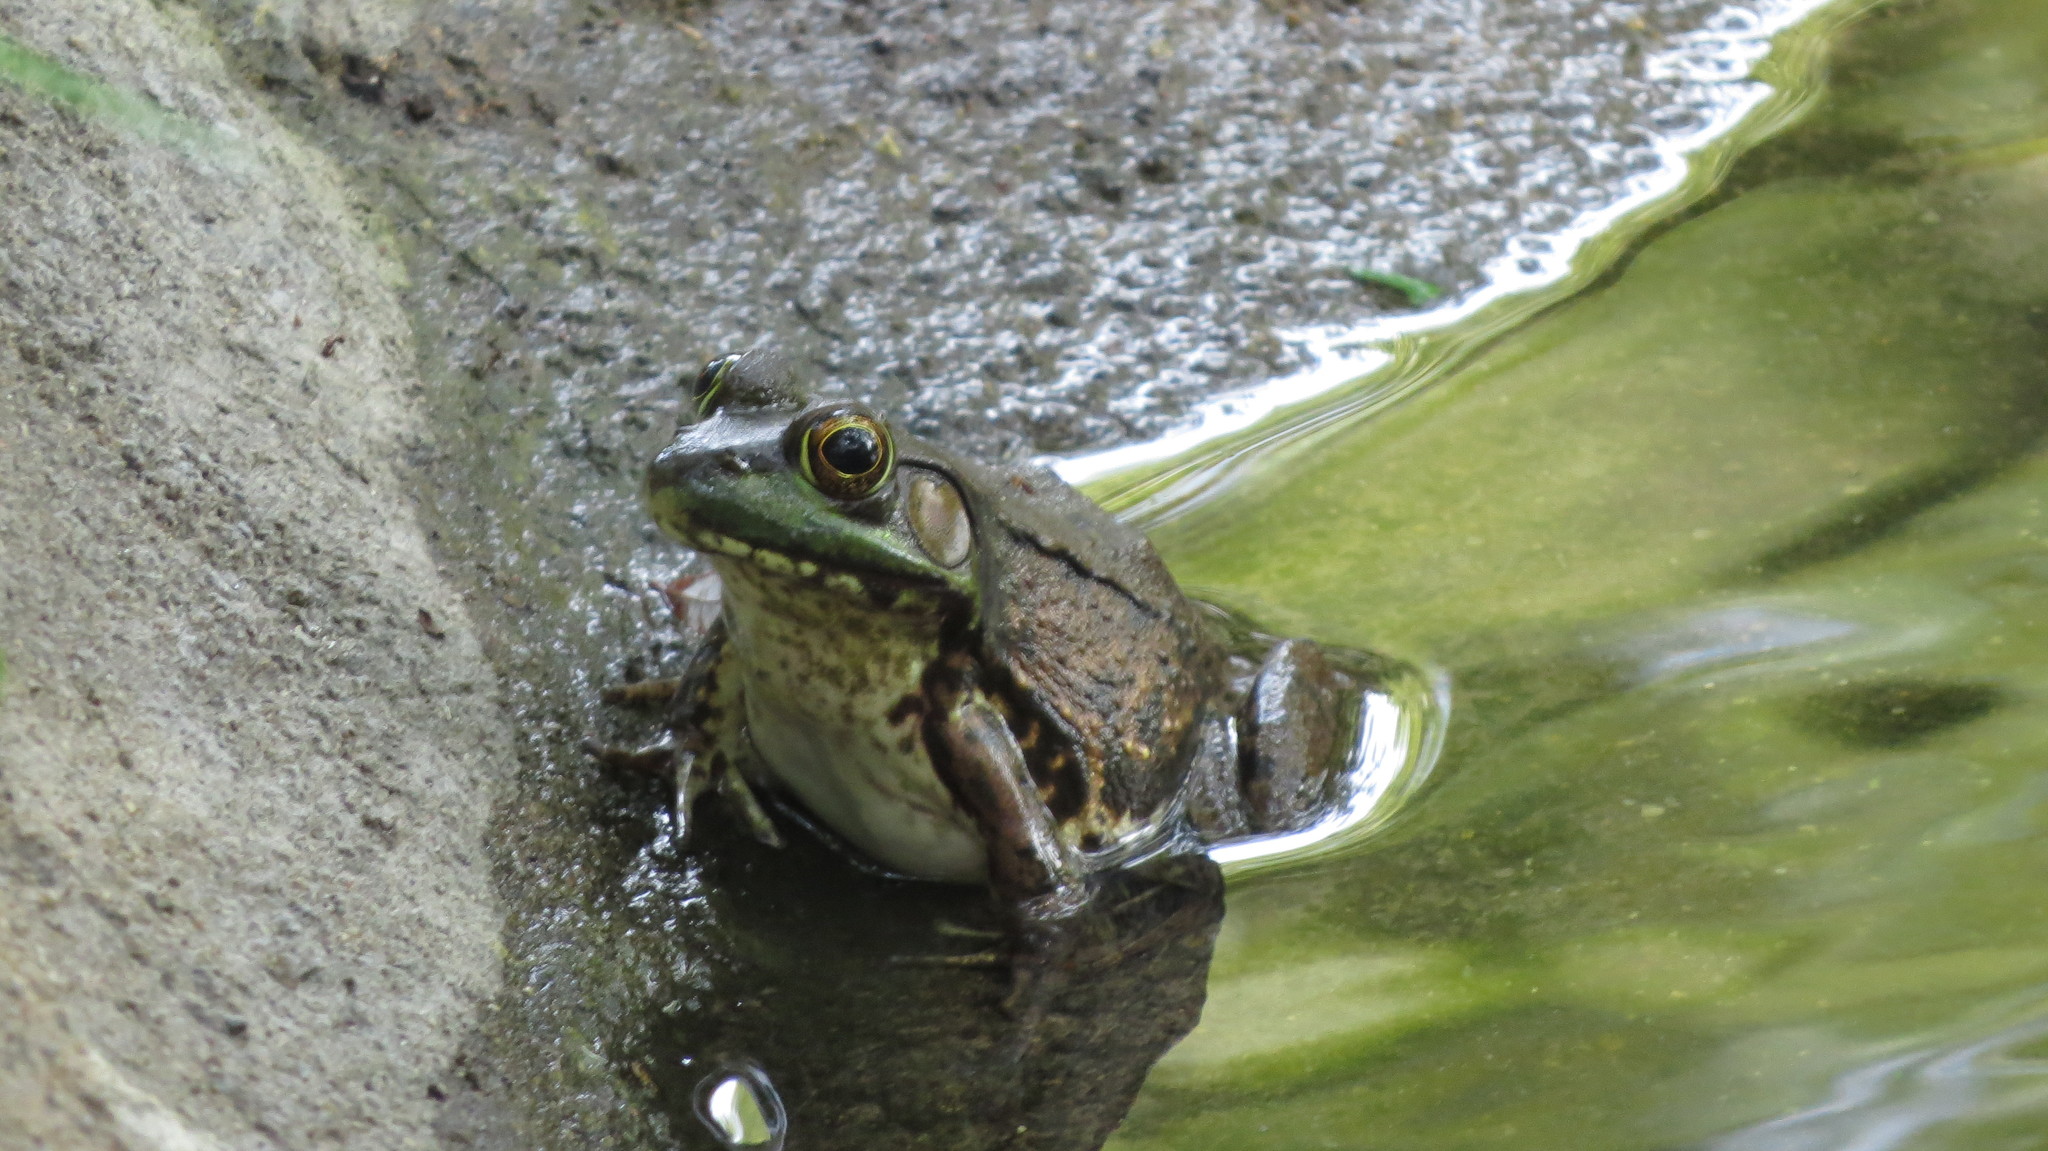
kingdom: Animalia
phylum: Chordata
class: Amphibia
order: Anura
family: Ranidae
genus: Lithobates
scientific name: Lithobates clamitans
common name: Green frog
